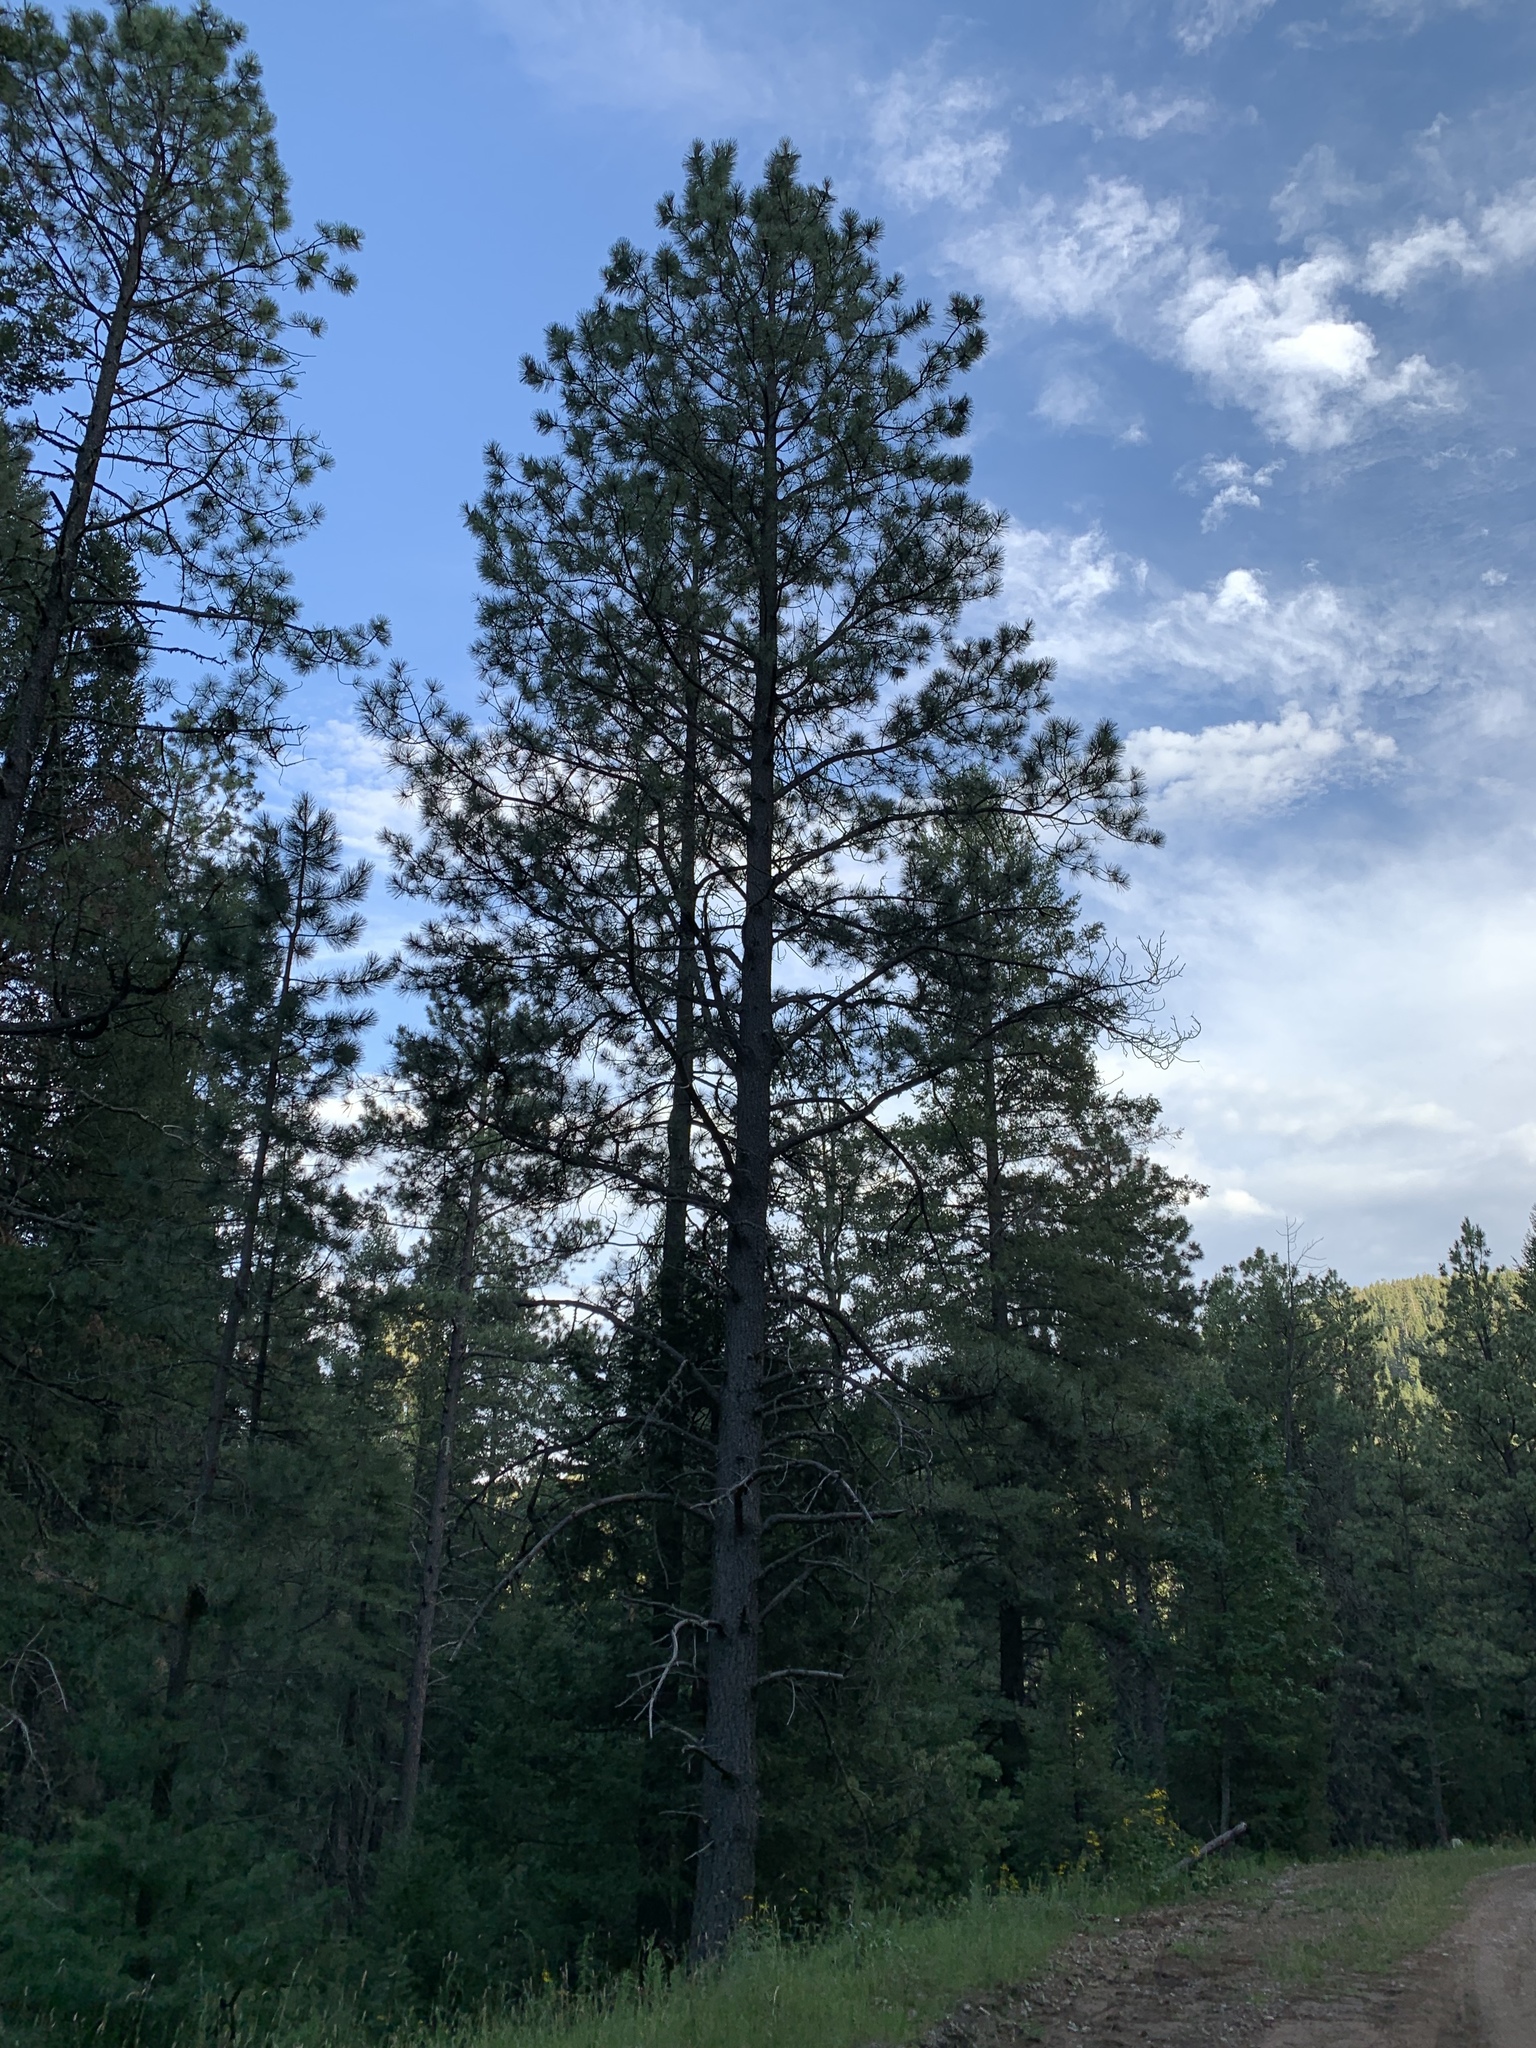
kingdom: Plantae
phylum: Tracheophyta
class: Pinopsida
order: Pinales
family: Pinaceae
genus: Pinus
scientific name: Pinus ponderosa
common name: Western yellow-pine
